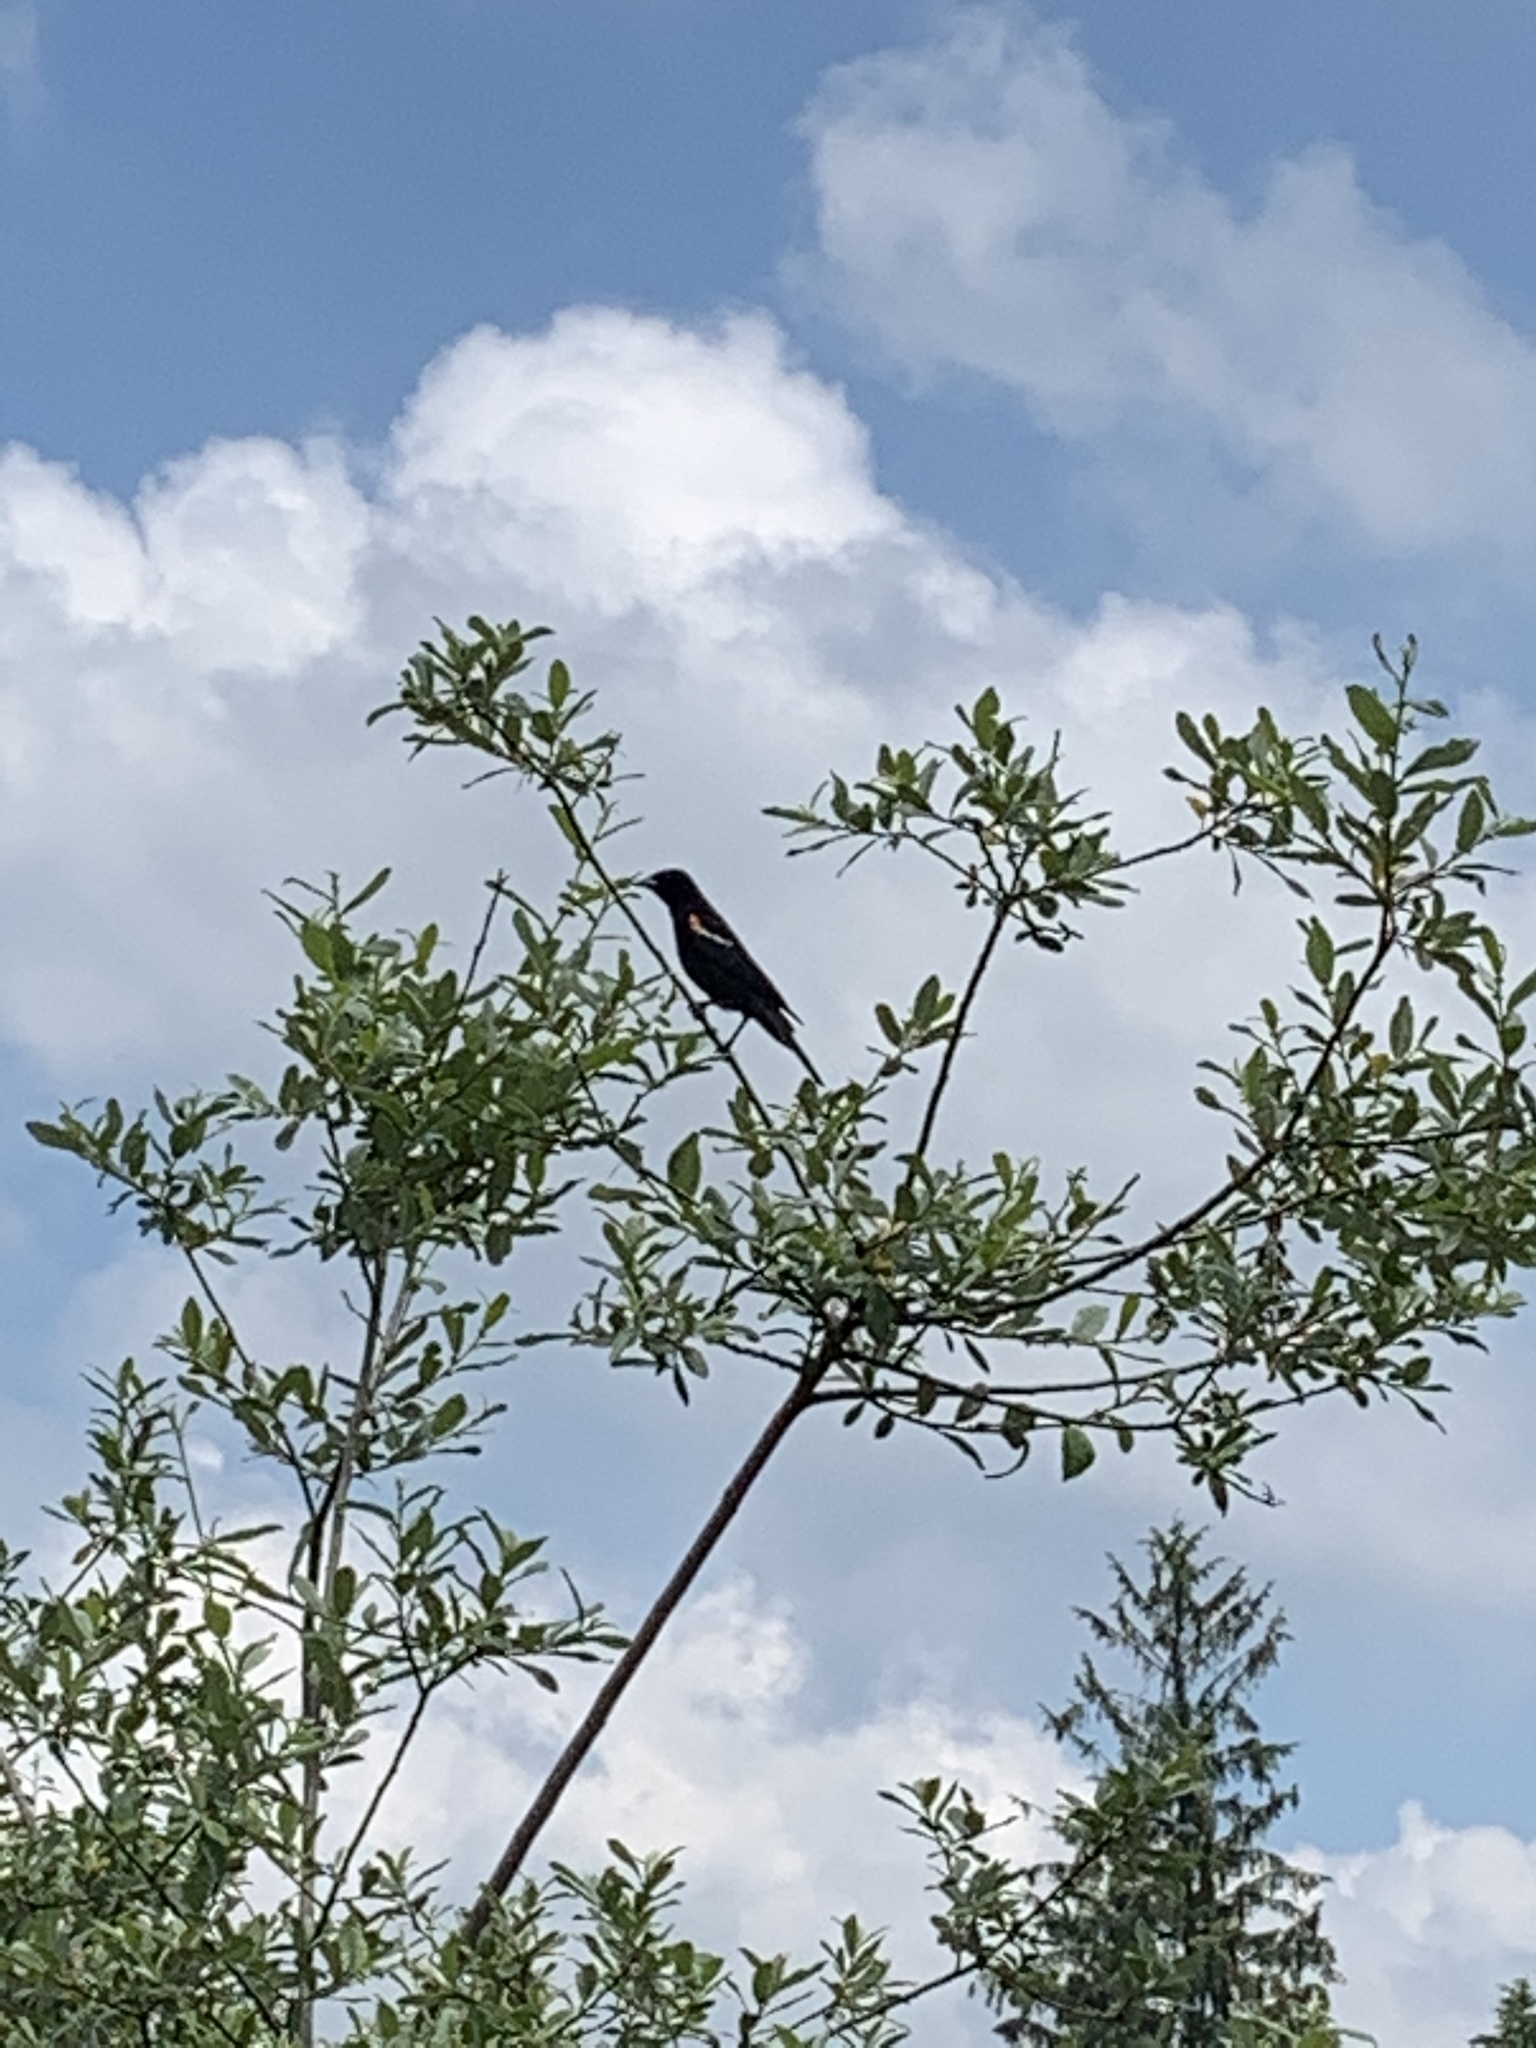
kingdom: Animalia
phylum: Chordata
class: Aves
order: Passeriformes
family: Icteridae
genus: Agelaius
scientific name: Agelaius phoeniceus
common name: Red-winged blackbird
